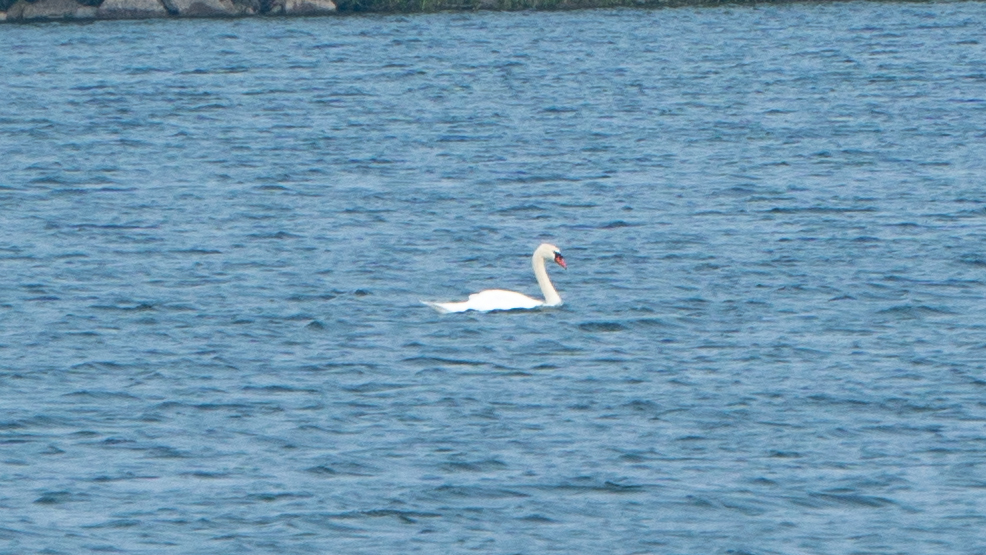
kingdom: Animalia
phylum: Chordata
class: Aves
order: Anseriformes
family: Anatidae
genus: Cygnus
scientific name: Cygnus olor
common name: Mute swan
